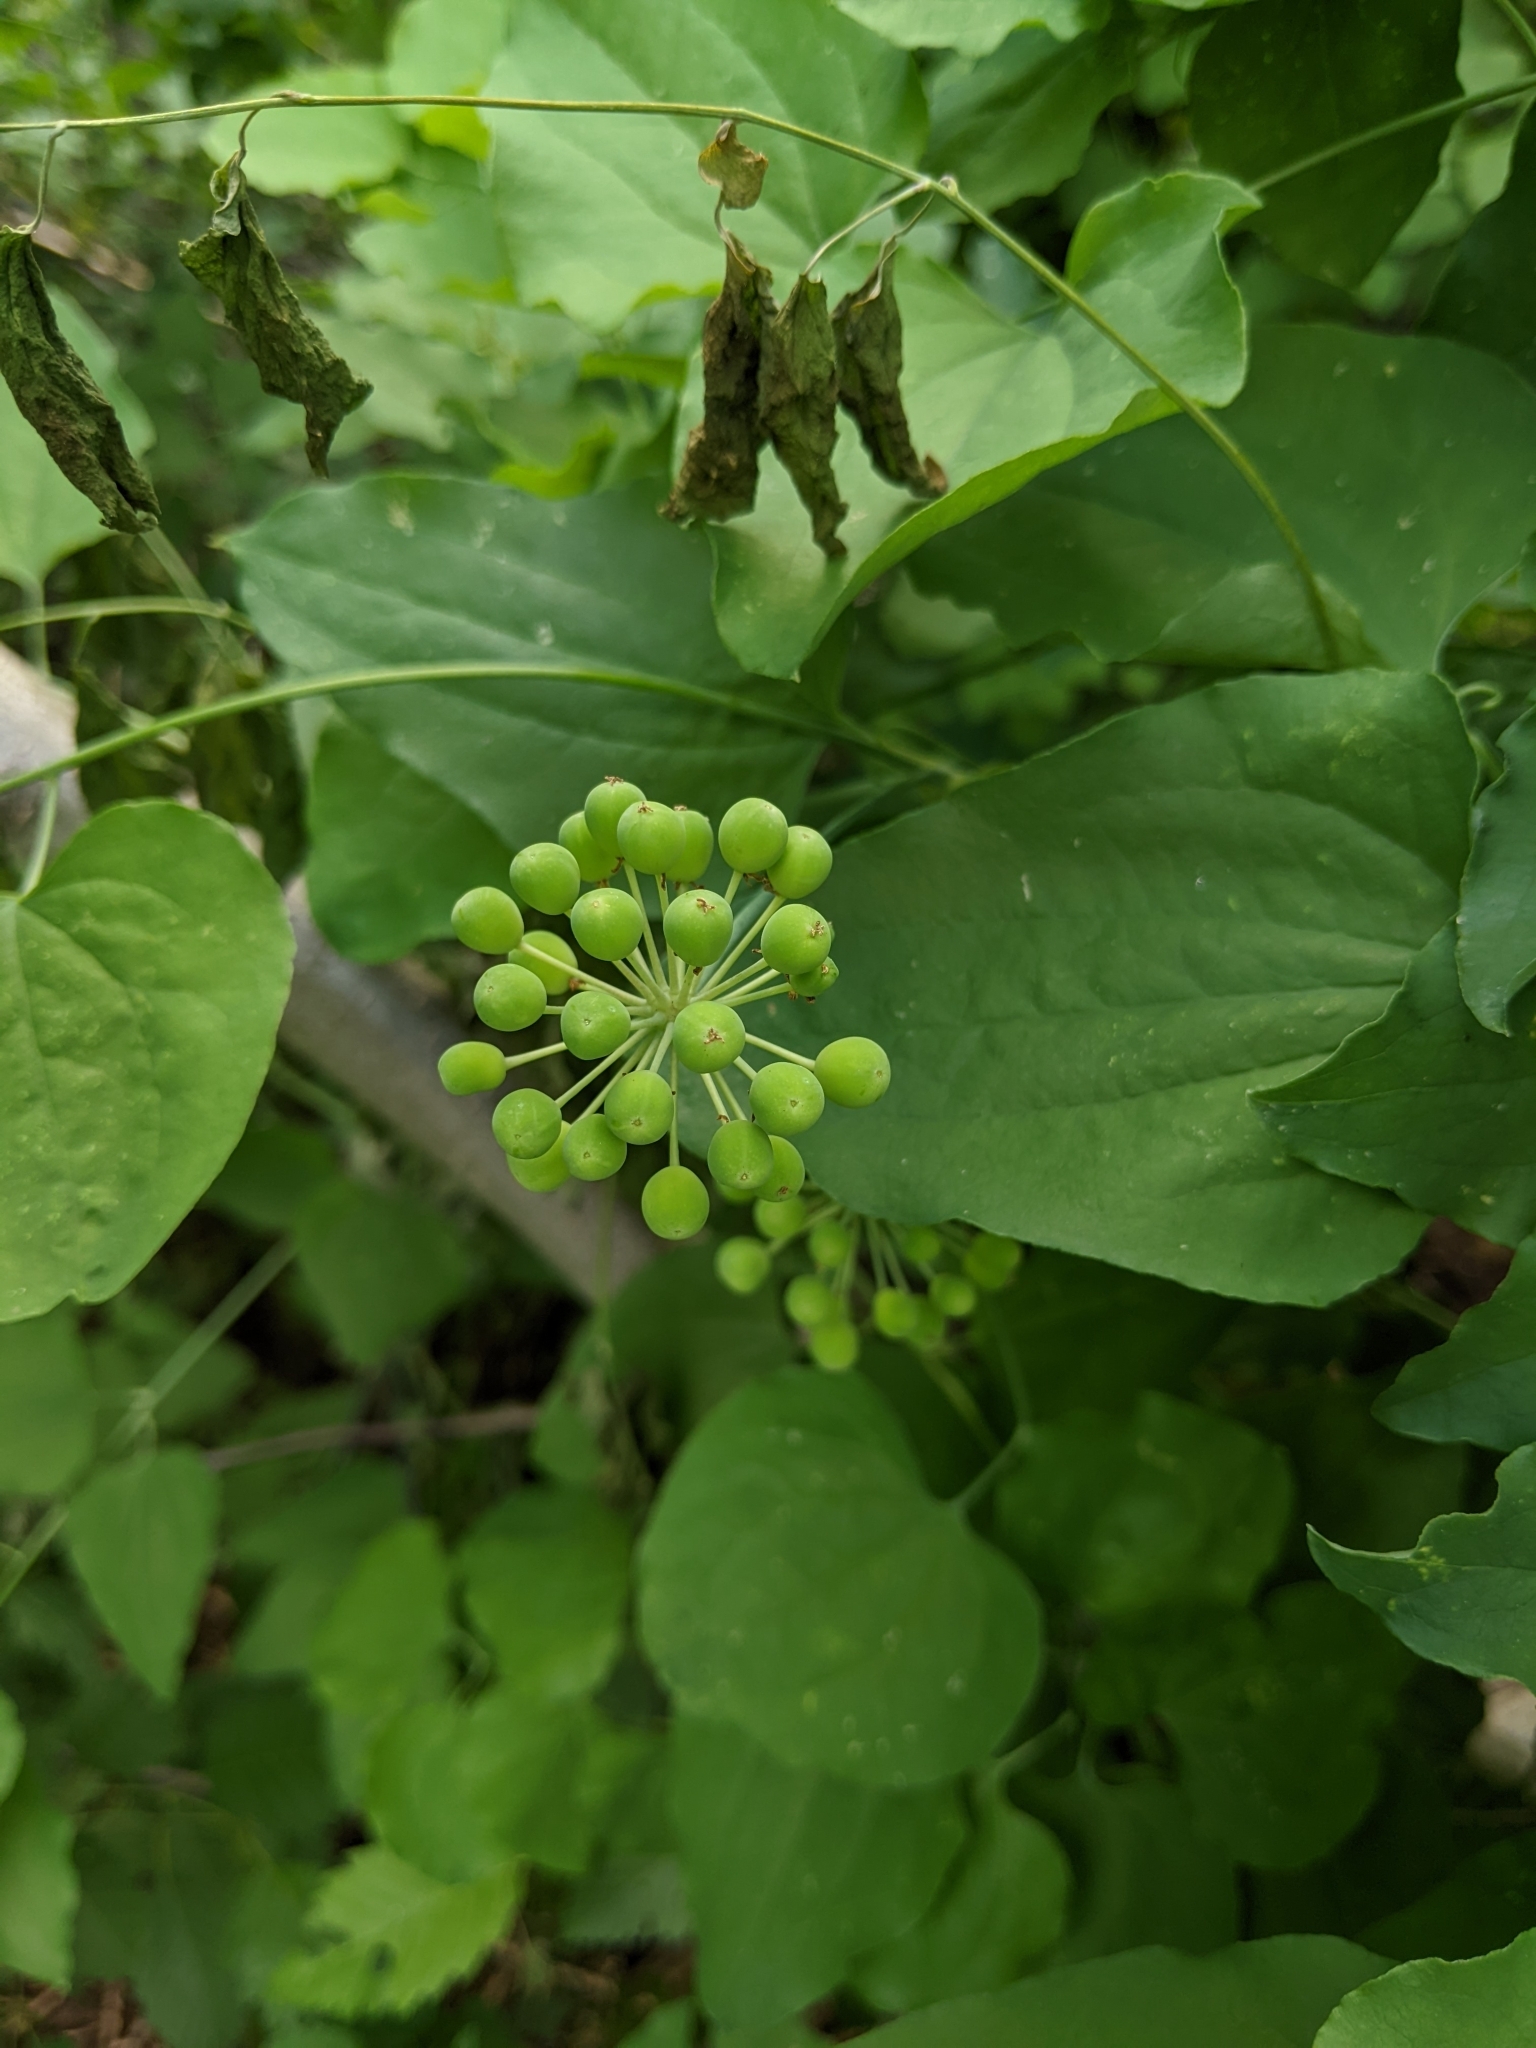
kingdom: Plantae
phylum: Tracheophyta
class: Liliopsida
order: Liliales
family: Smilacaceae
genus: Smilax
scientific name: Smilax jamesii
